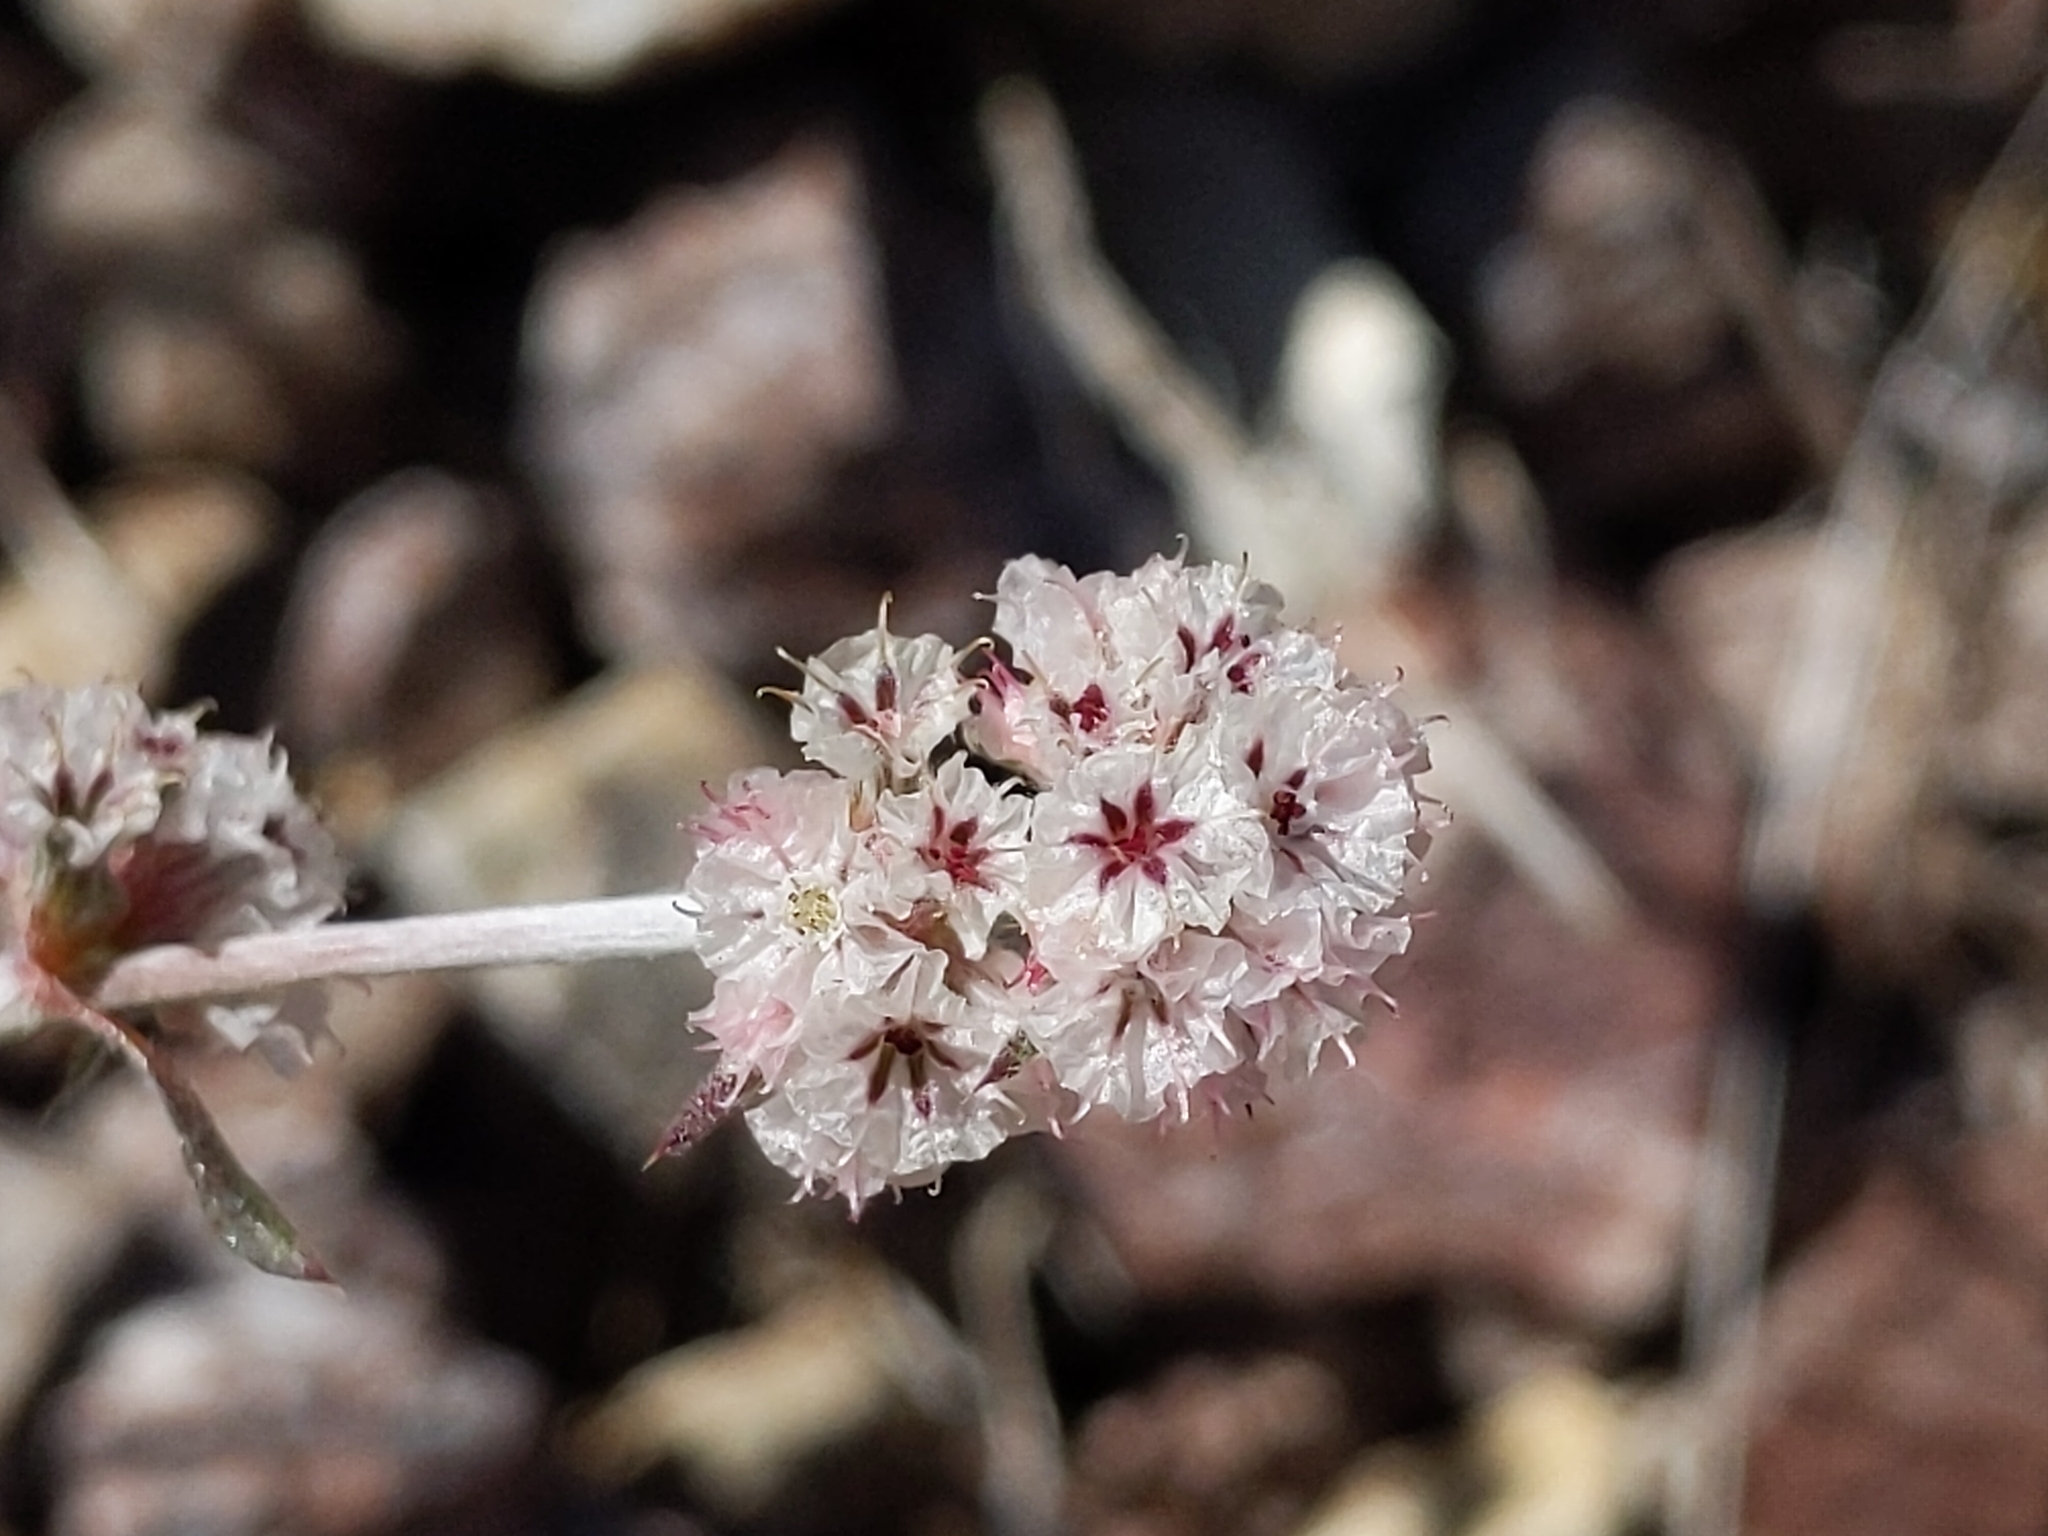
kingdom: Plantae
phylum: Tracheophyta
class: Magnoliopsida
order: Caryophyllales
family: Polygonaceae
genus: Chorizanthe
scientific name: Chorizanthe membranacea
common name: Pink spineflower
